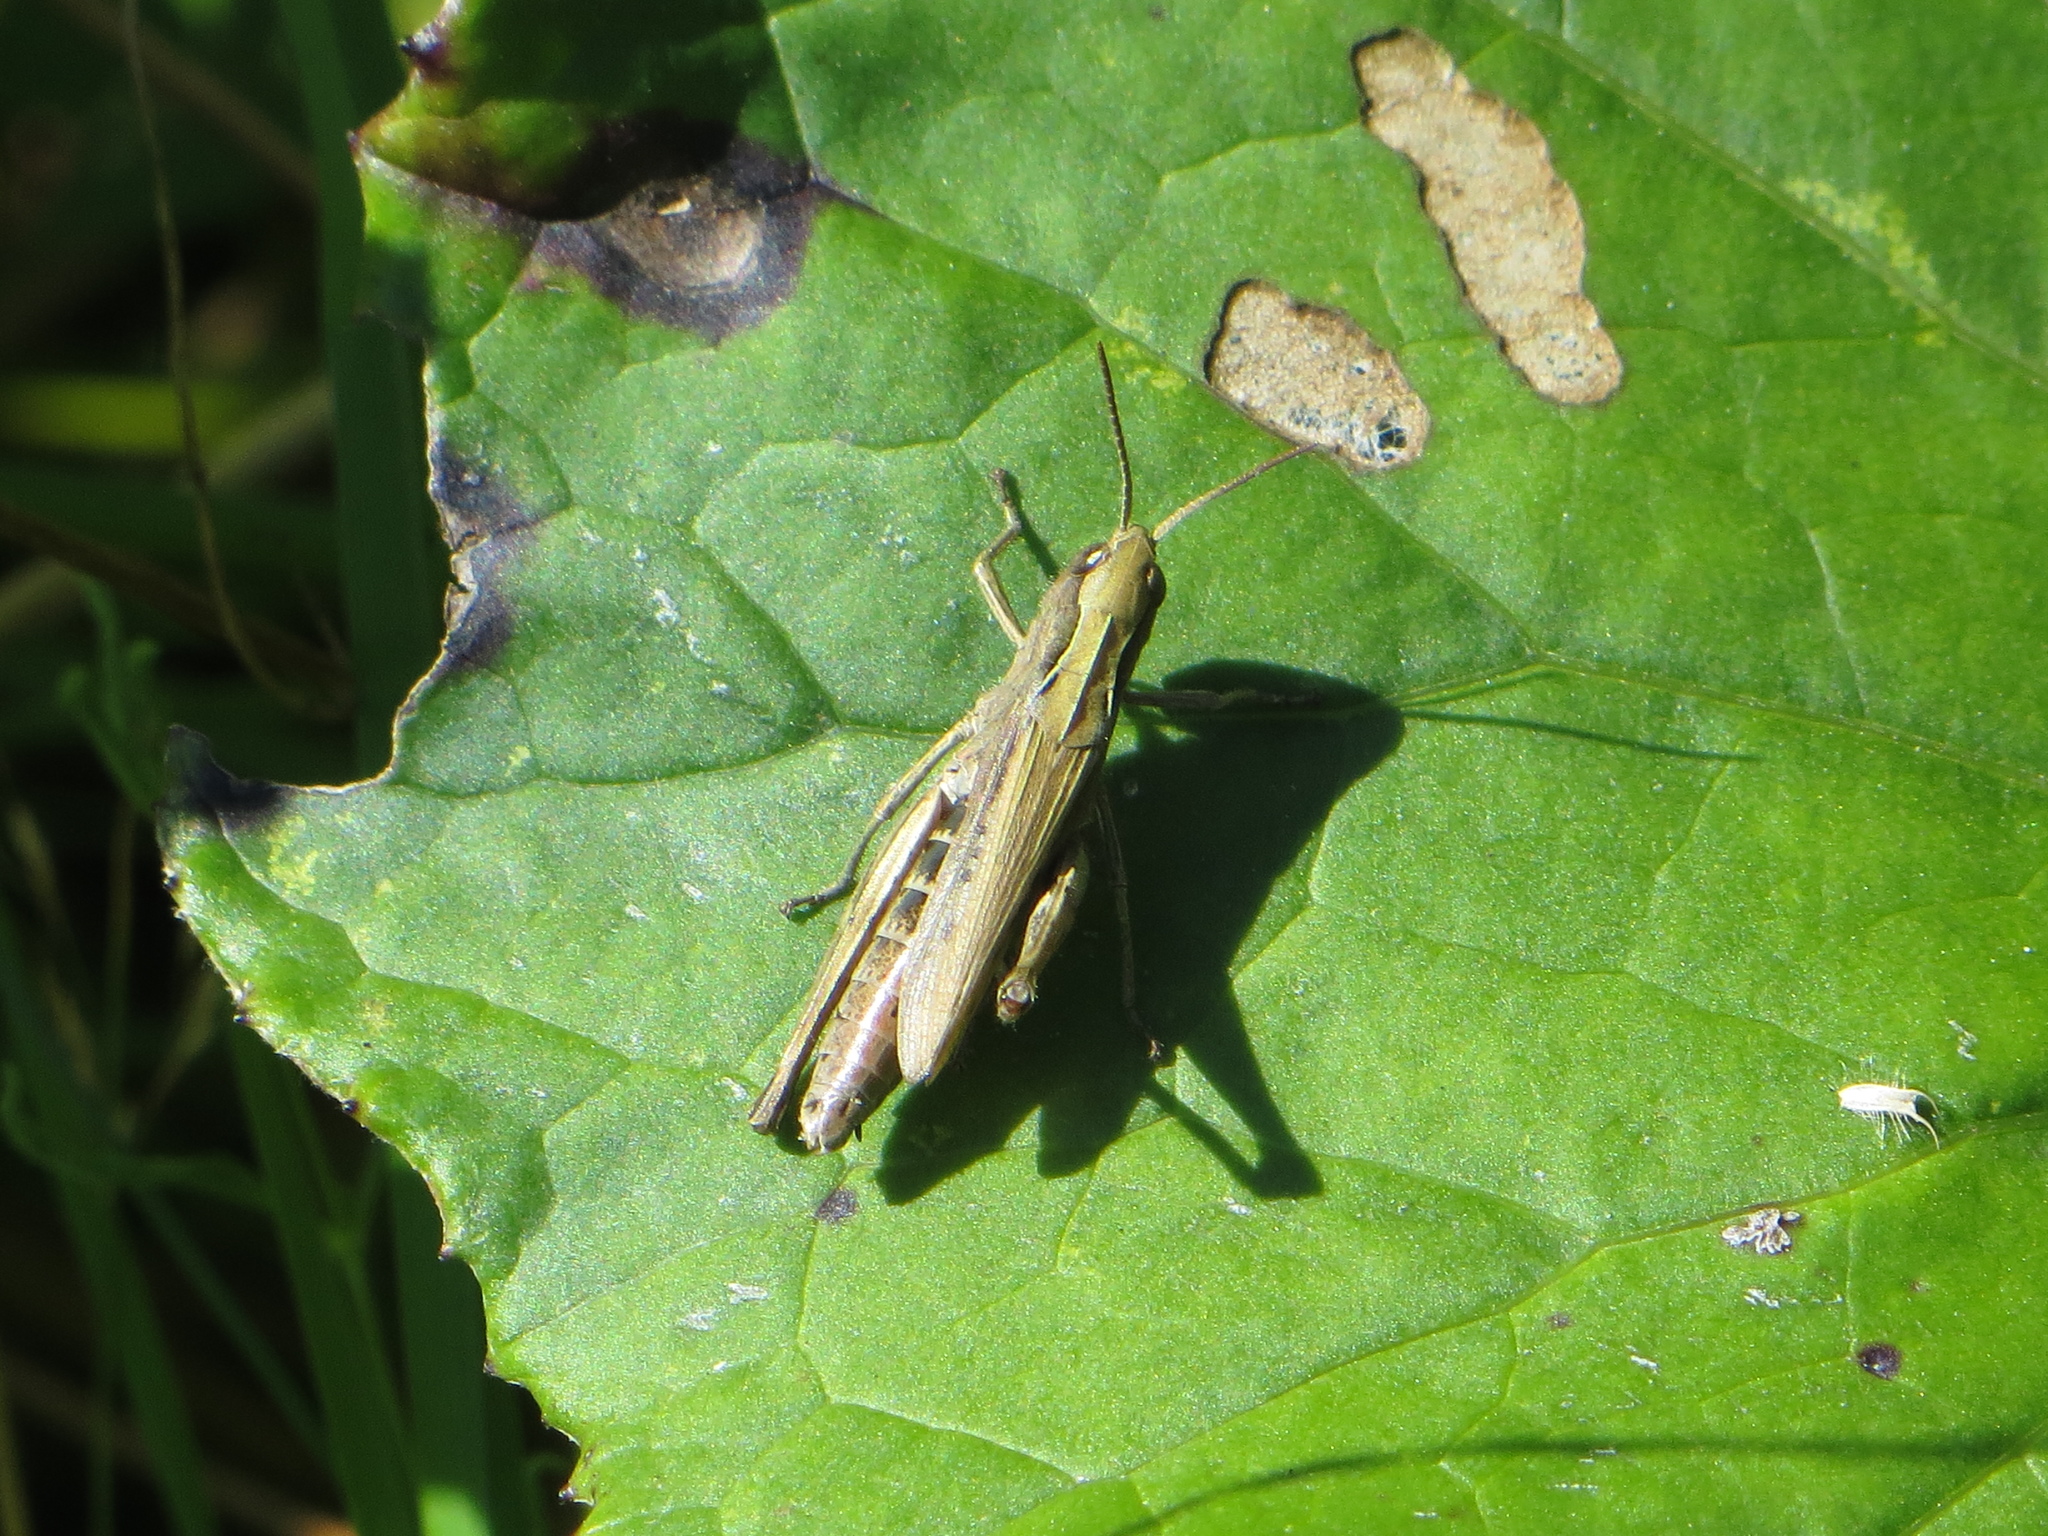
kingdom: Animalia
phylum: Arthropoda
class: Insecta
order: Orthoptera
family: Acrididae
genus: Chorthippus
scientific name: Chorthippus dorsatus
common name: Steppe grasshopper
